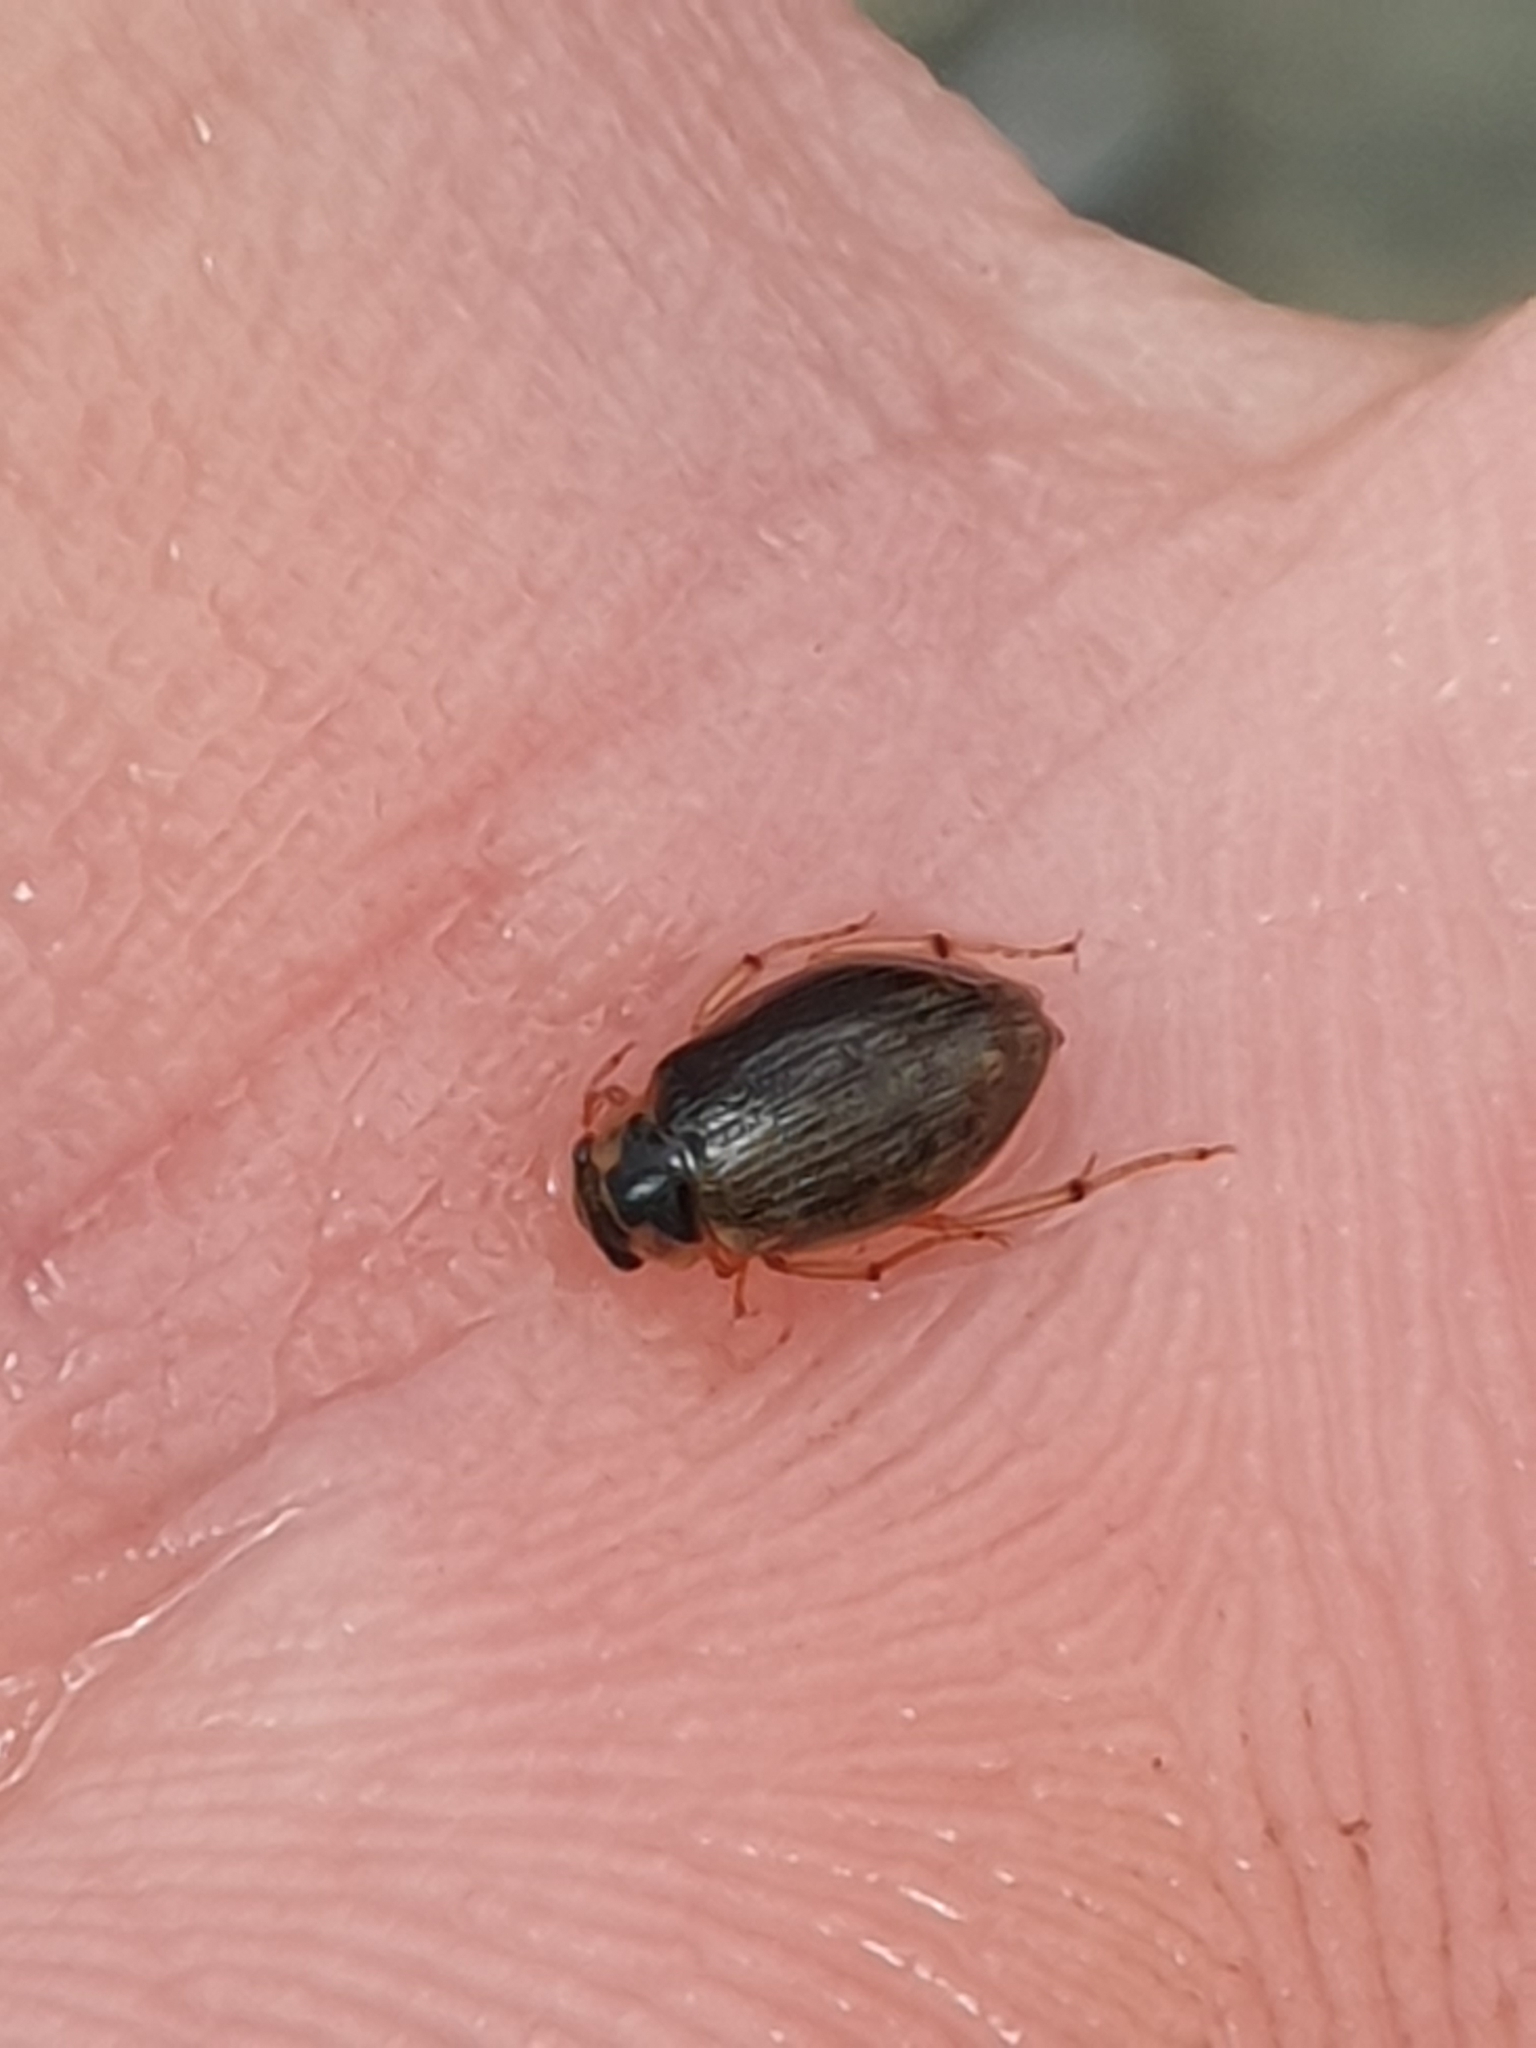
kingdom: Animalia
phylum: Arthropoda
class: Insecta
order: Coleoptera
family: Hydrophilidae
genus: Berosus
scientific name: Berosus muellerorum
